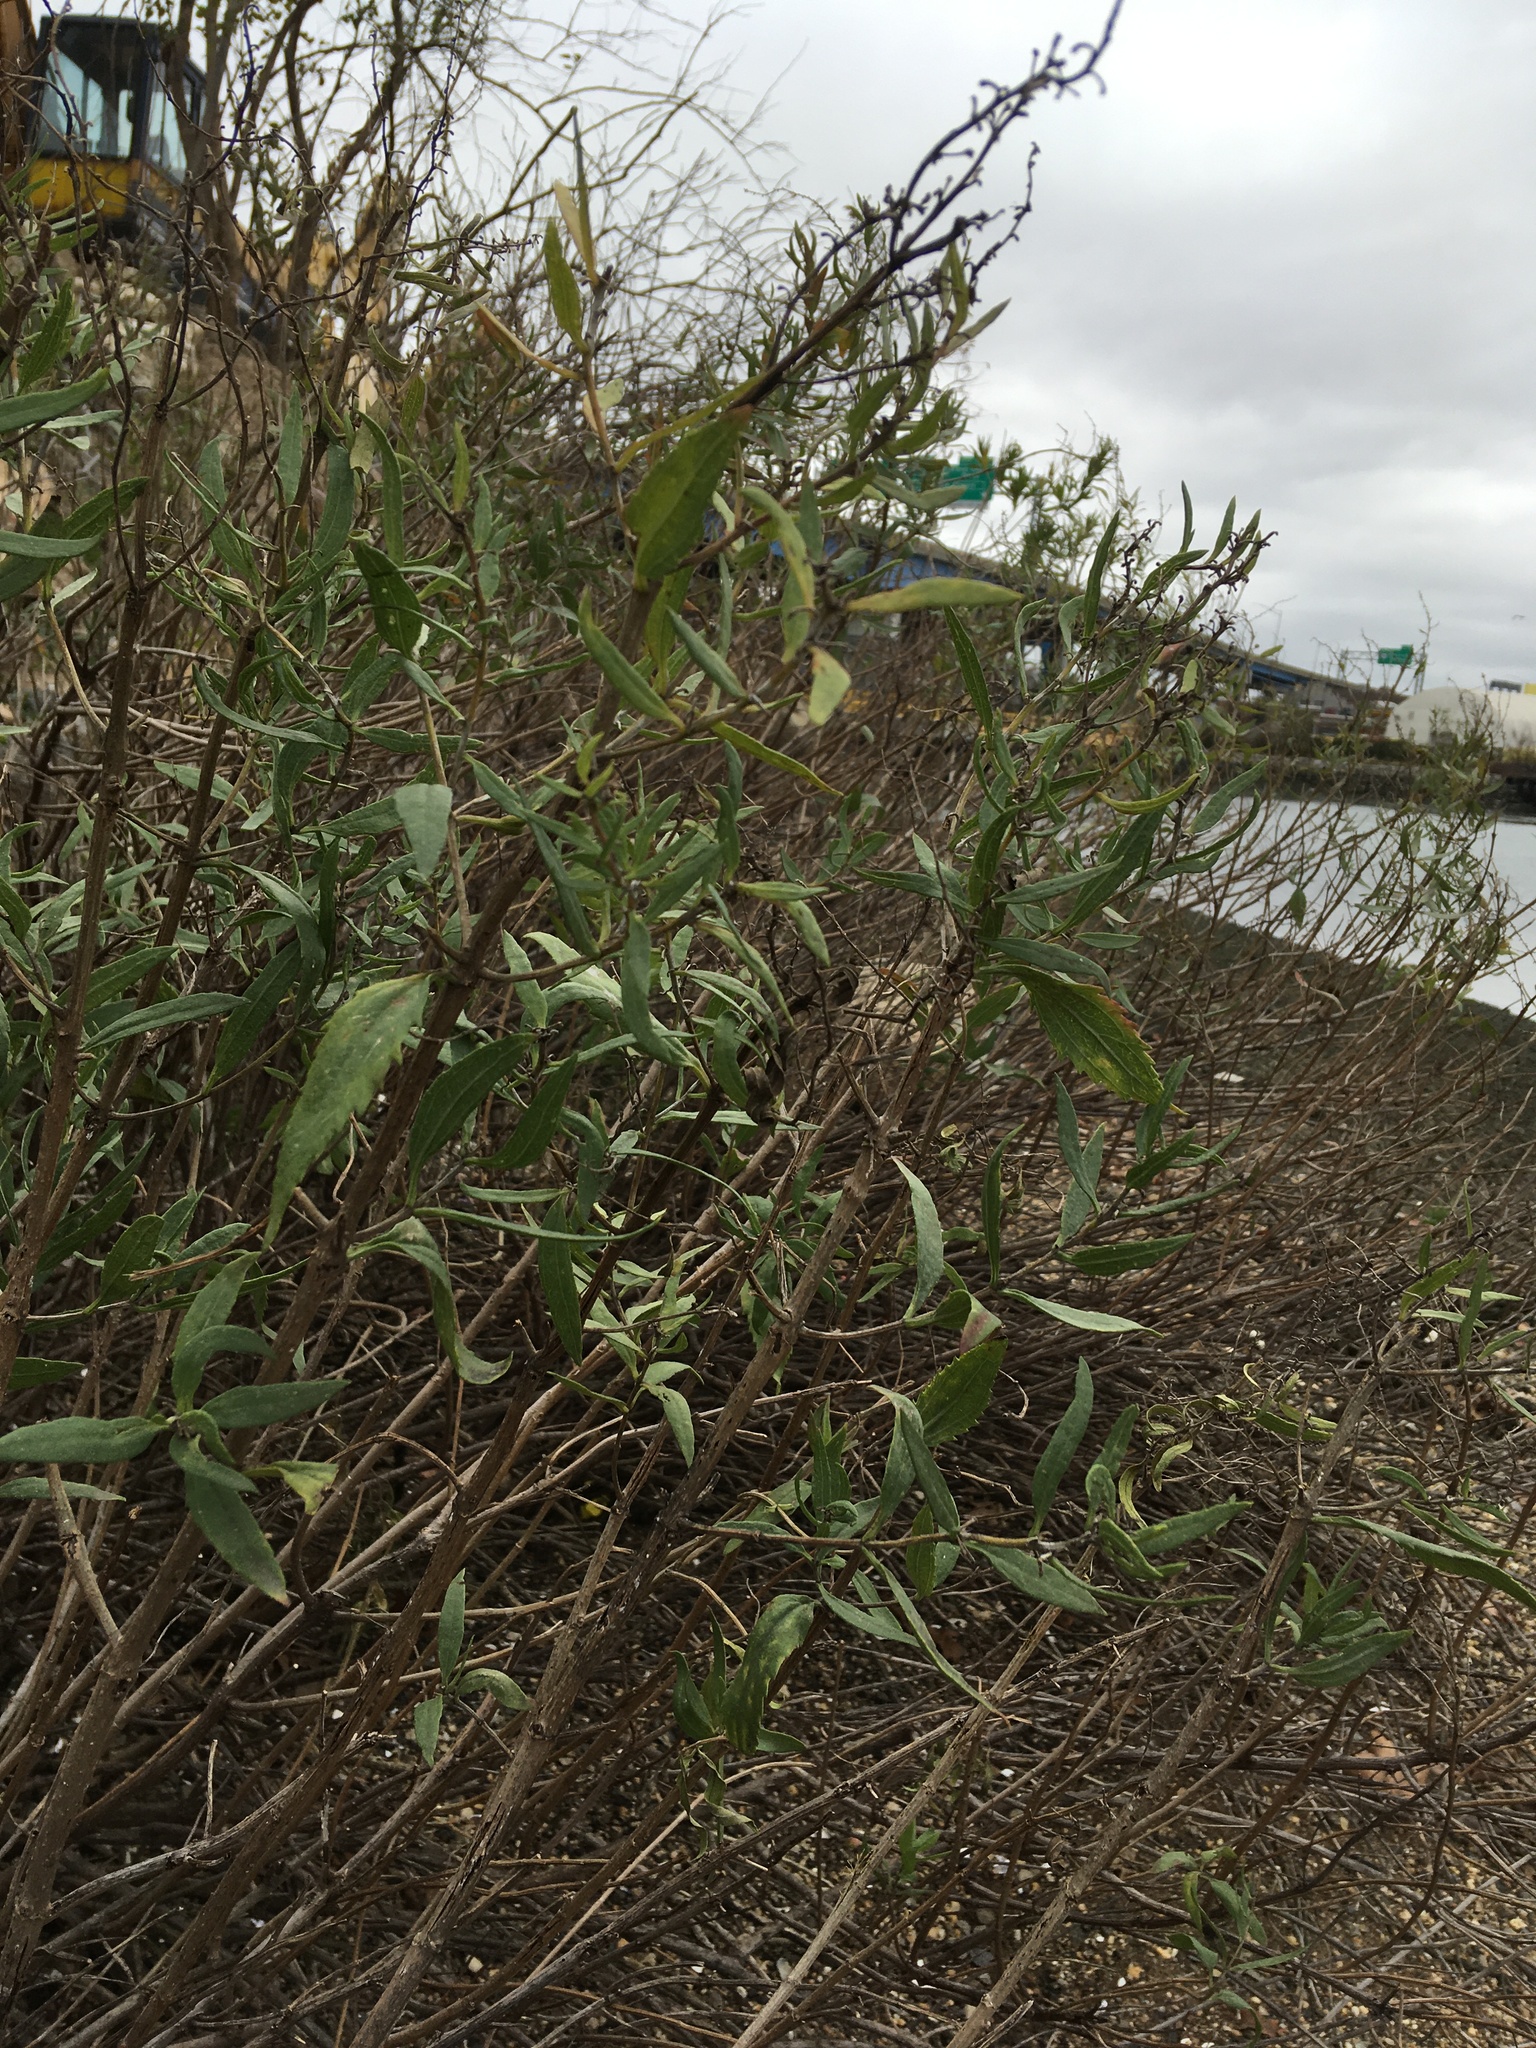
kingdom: Plantae
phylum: Tracheophyta
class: Magnoliopsida
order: Asterales
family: Asteraceae
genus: Iva
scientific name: Iva frutescens
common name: Big-leaved marsh-elder
